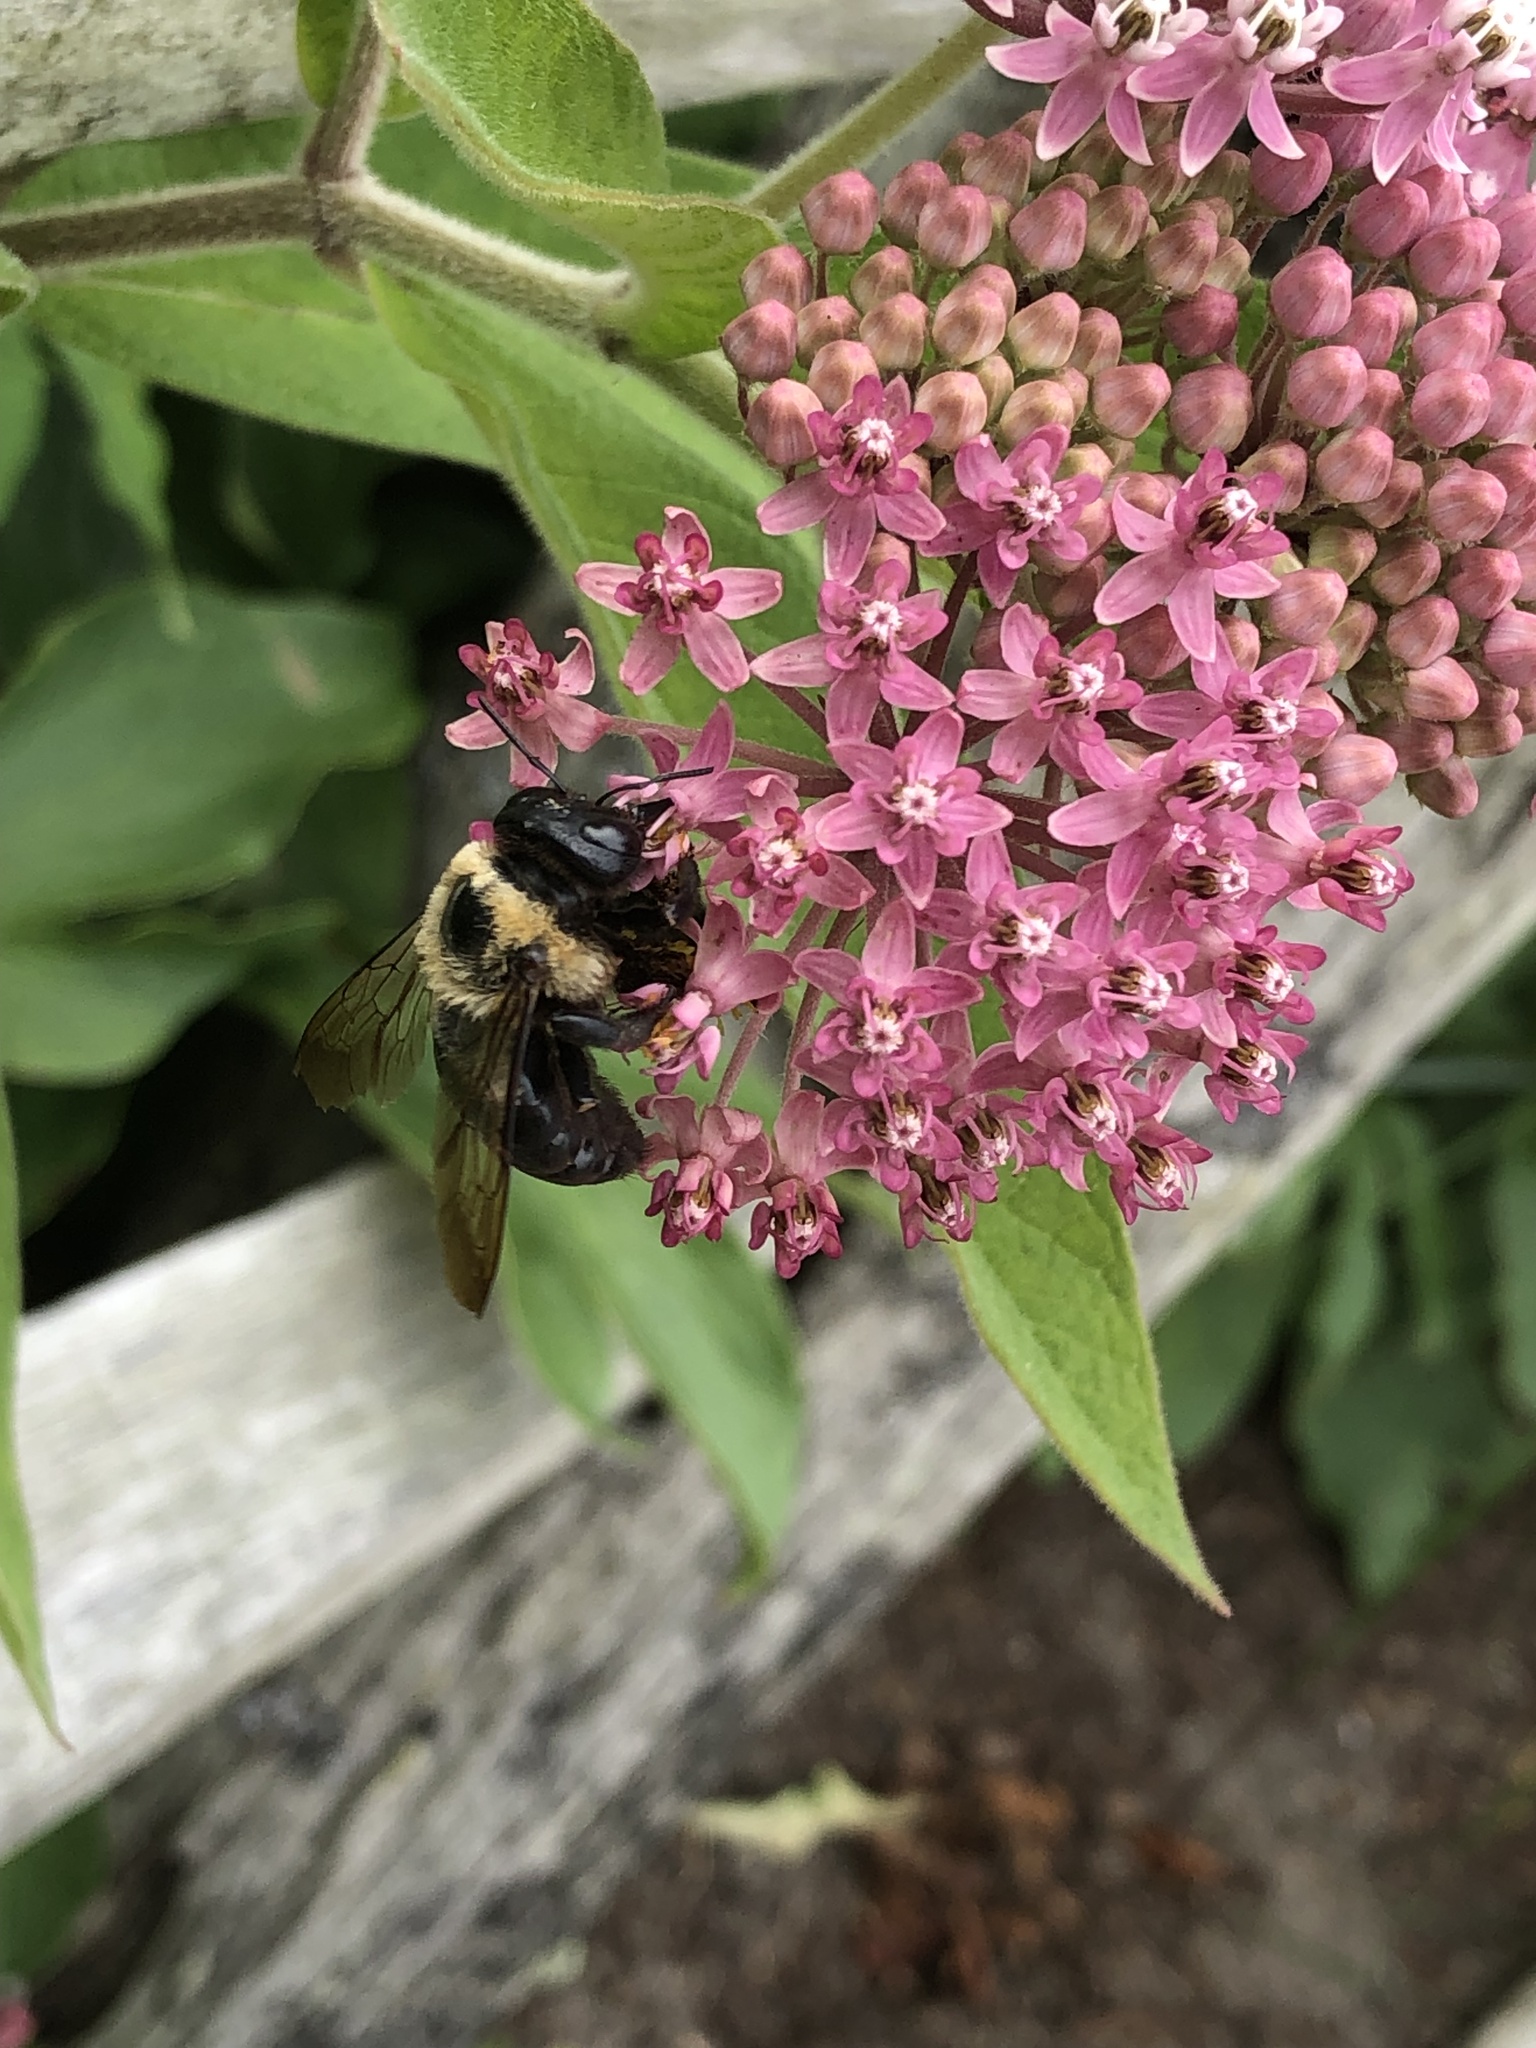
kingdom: Animalia
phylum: Arthropoda
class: Insecta
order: Hymenoptera
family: Apidae
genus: Xylocopa
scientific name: Xylocopa virginica
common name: Carpenter bee
